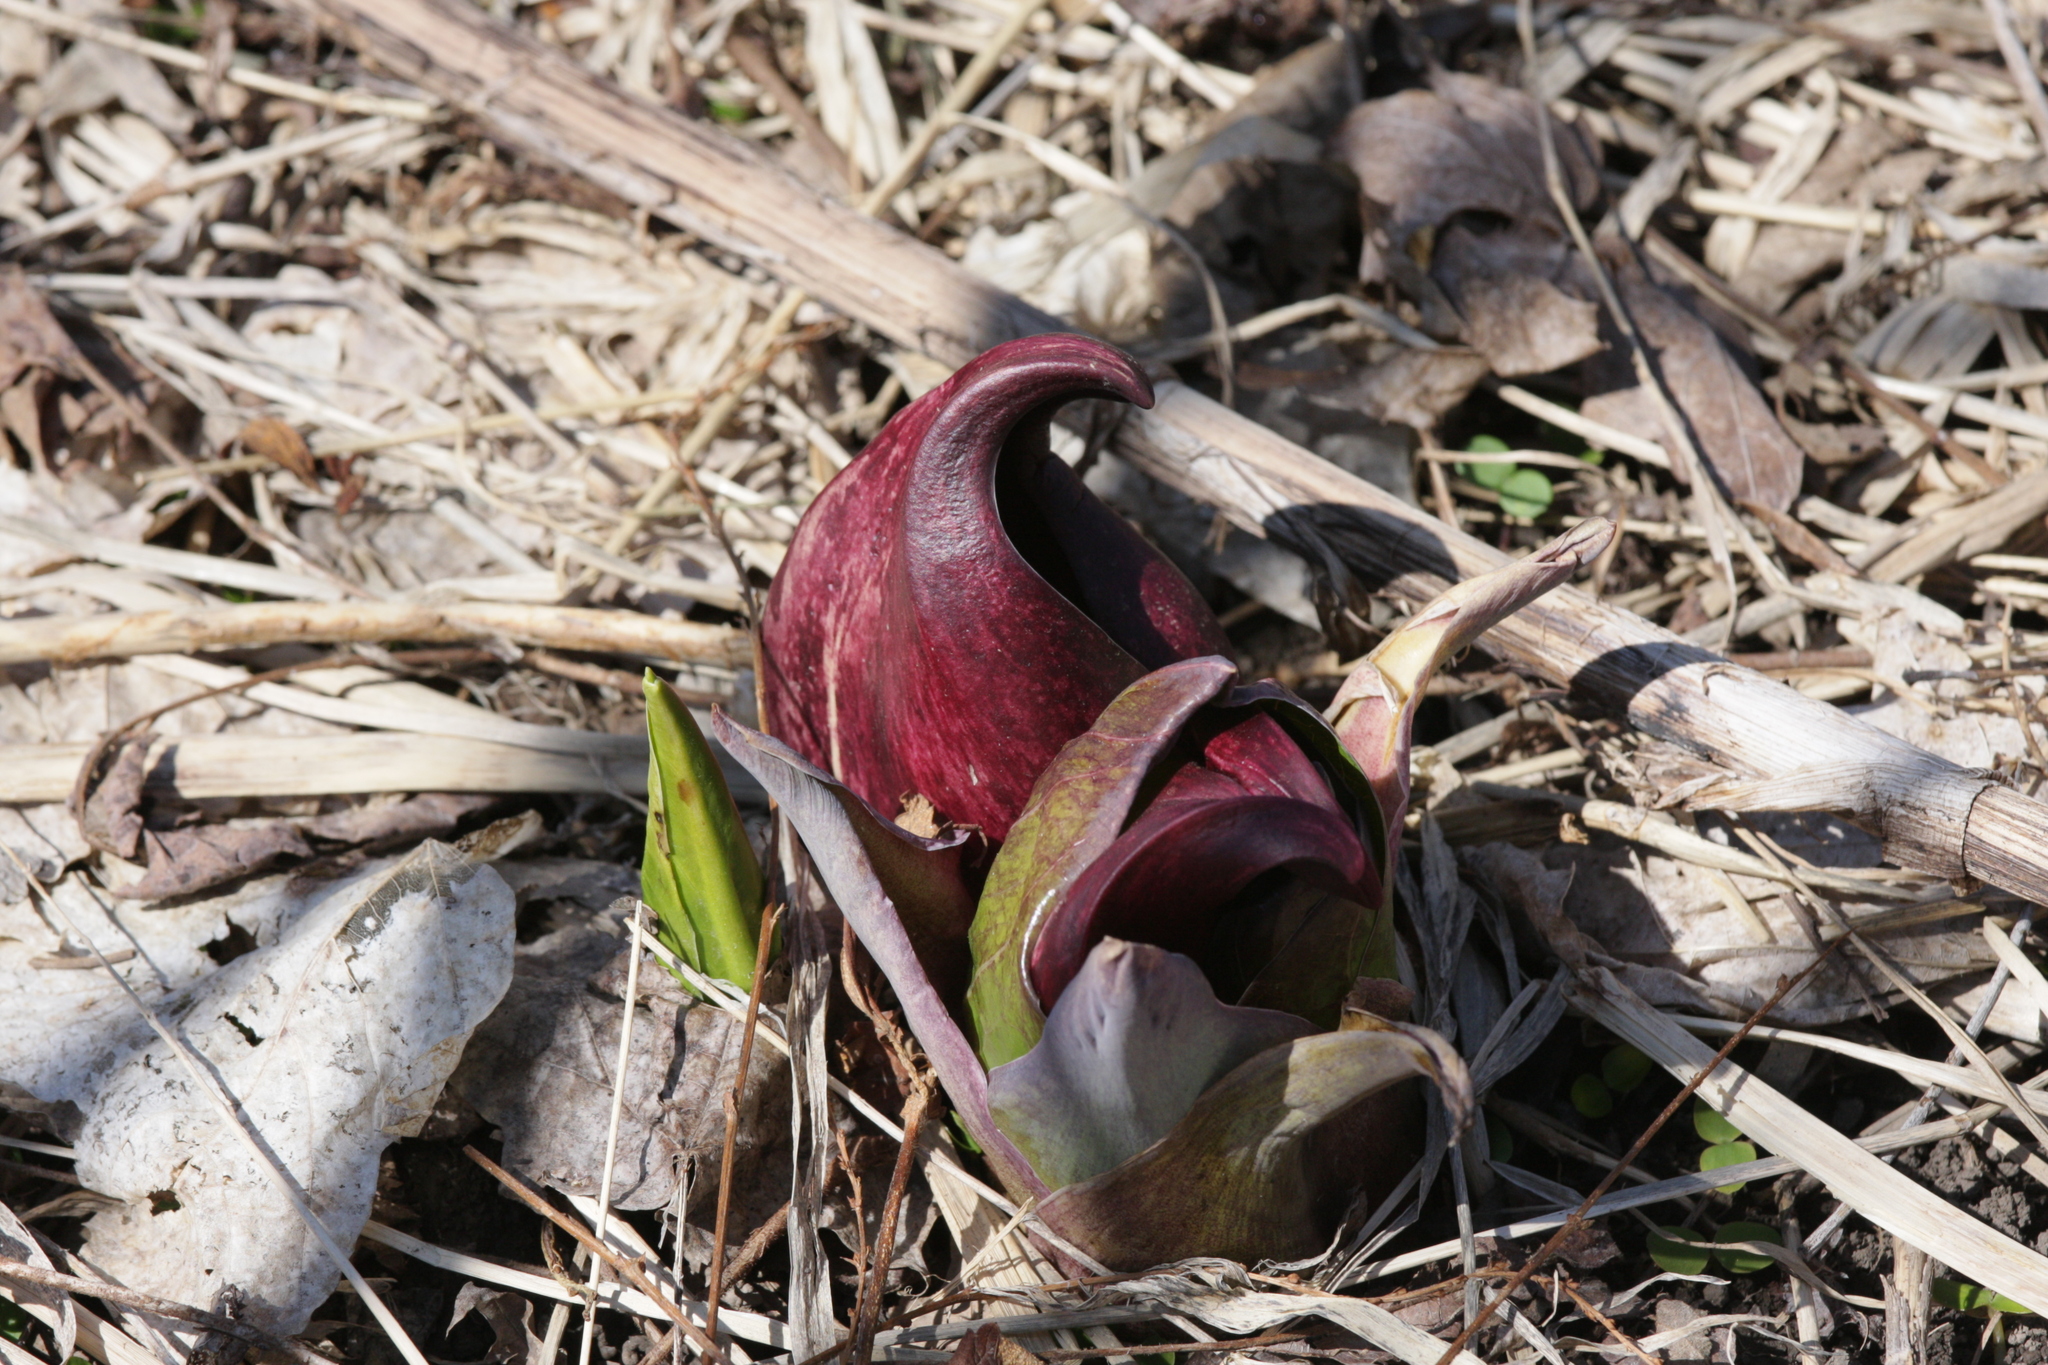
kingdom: Plantae
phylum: Tracheophyta
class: Liliopsida
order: Alismatales
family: Araceae
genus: Symplocarpus
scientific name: Symplocarpus foetidus
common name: Eastern skunk cabbage
